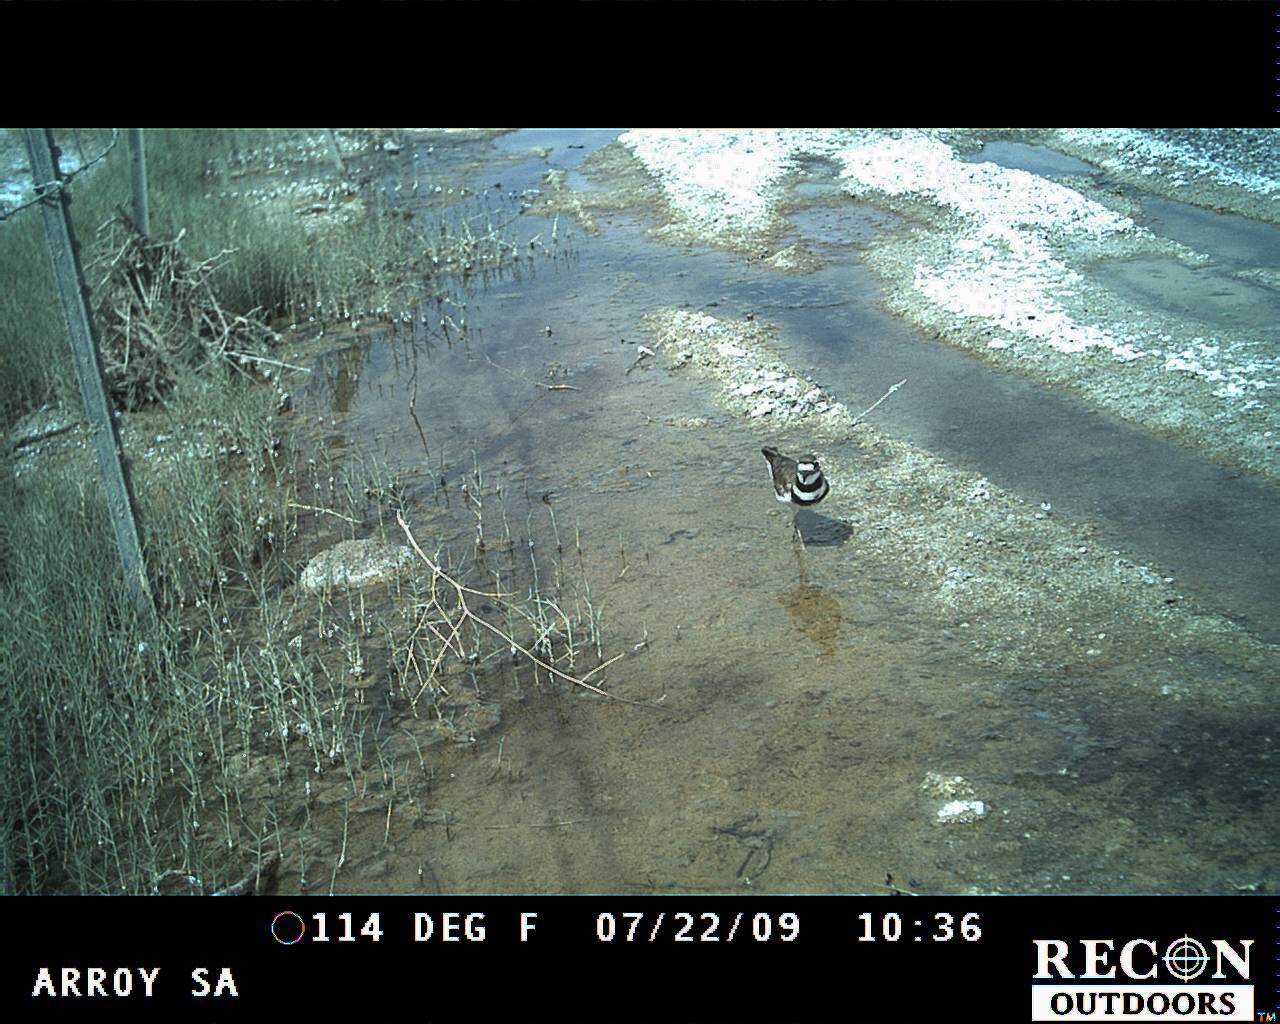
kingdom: Animalia
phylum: Chordata
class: Aves
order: Charadriiformes
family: Charadriidae
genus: Charadrius
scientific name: Charadrius vociferus
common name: Killdeer
